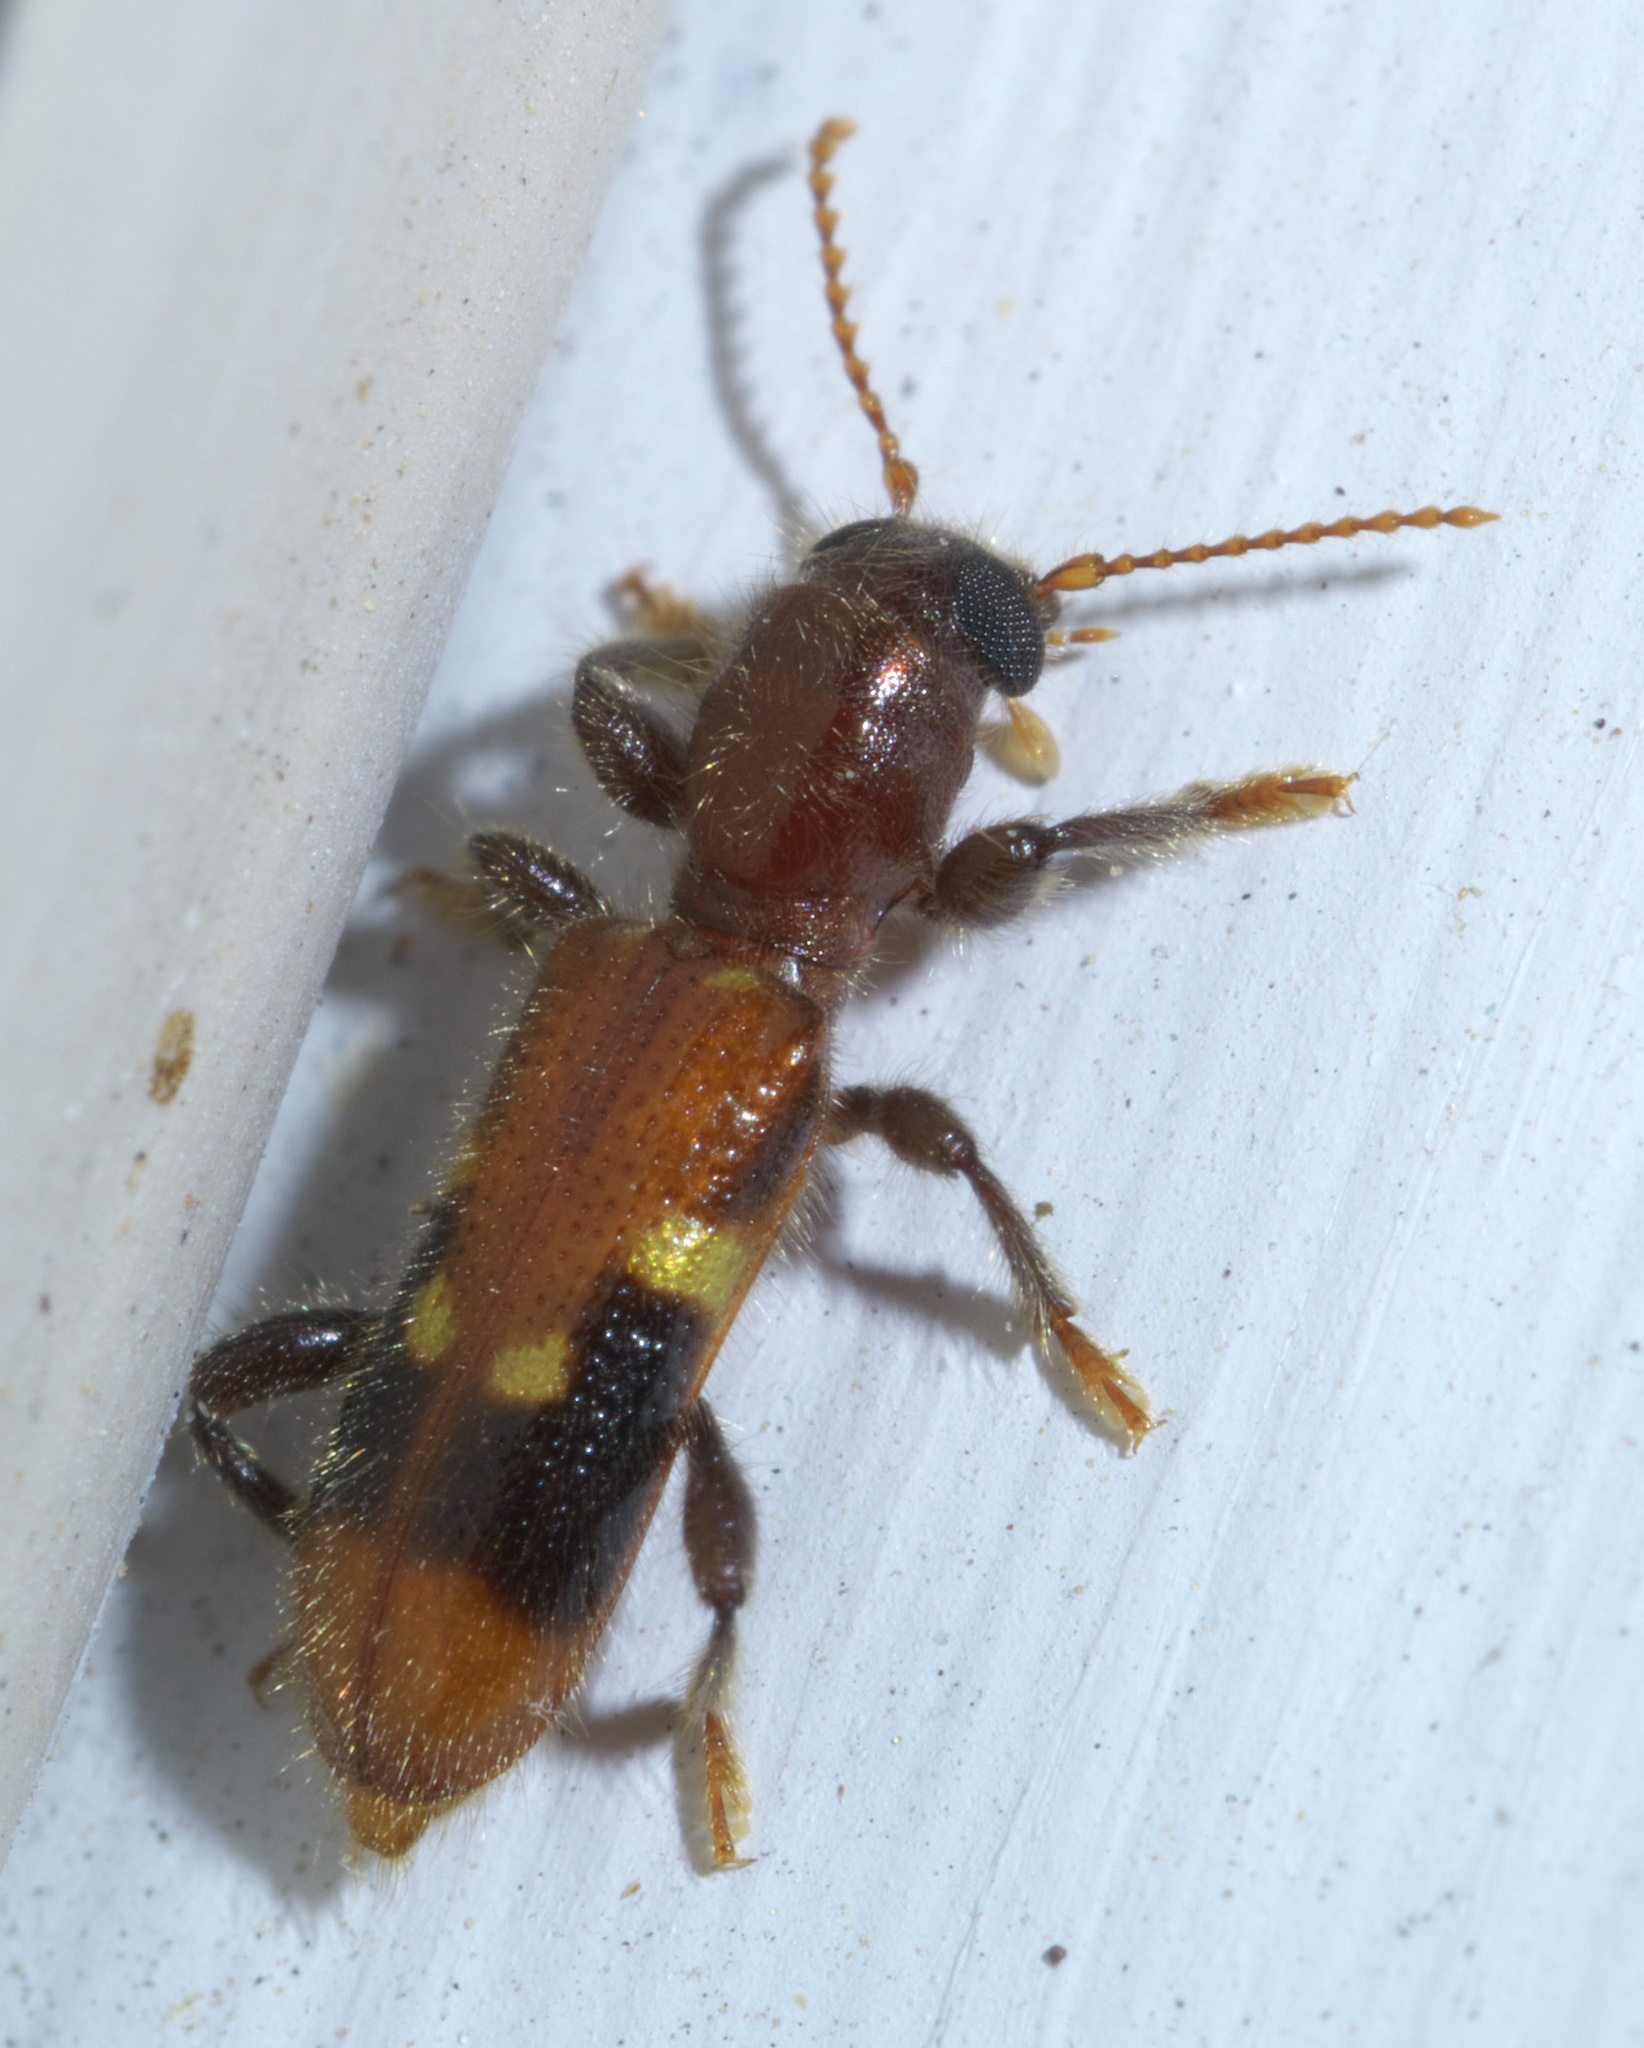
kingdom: Animalia
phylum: Arthropoda
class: Insecta
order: Coleoptera
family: Cleridae
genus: Priocera
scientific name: Priocera castanea
